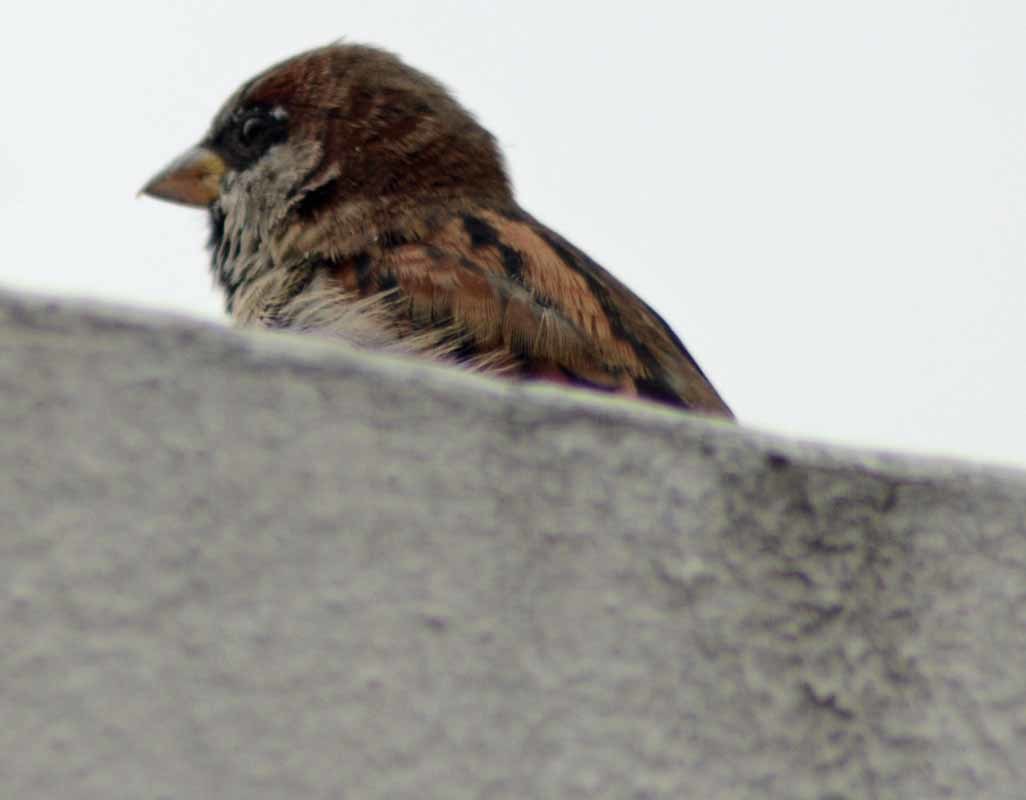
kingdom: Animalia
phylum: Chordata
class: Aves
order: Passeriformes
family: Passeridae
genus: Passer
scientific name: Passer domesticus
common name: House sparrow
